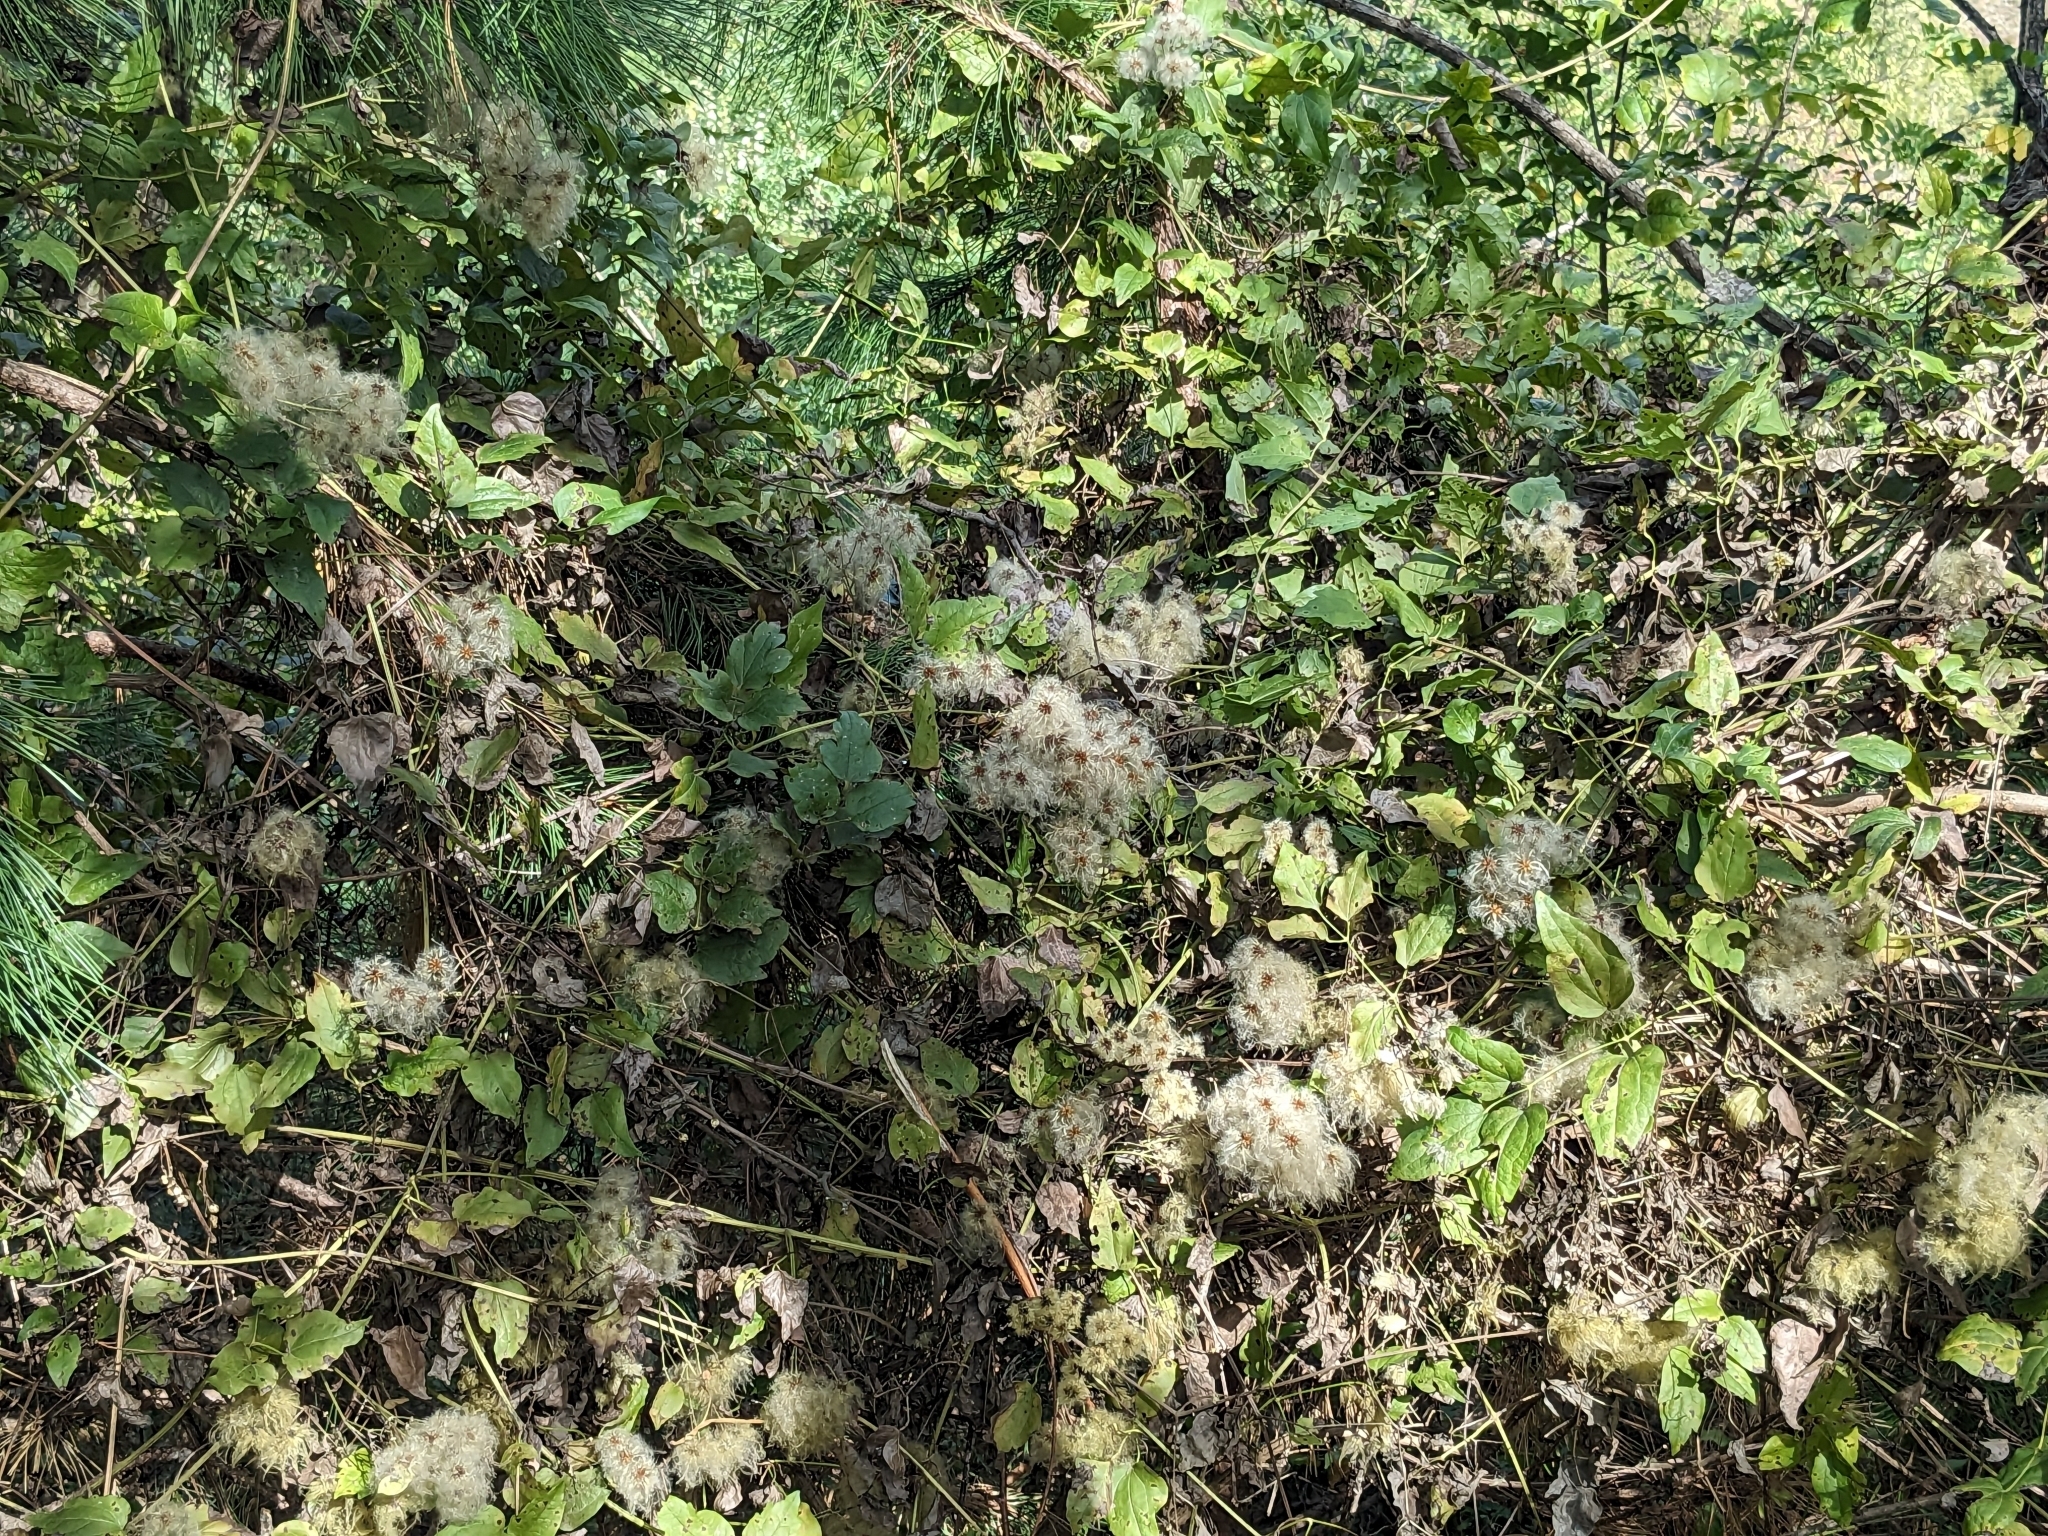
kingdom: Plantae
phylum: Tracheophyta
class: Magnoliopsida
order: Ranunculales
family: Ranunculaceae
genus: Clematis
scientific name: Clematis vitalba
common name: Evergreen clematis
